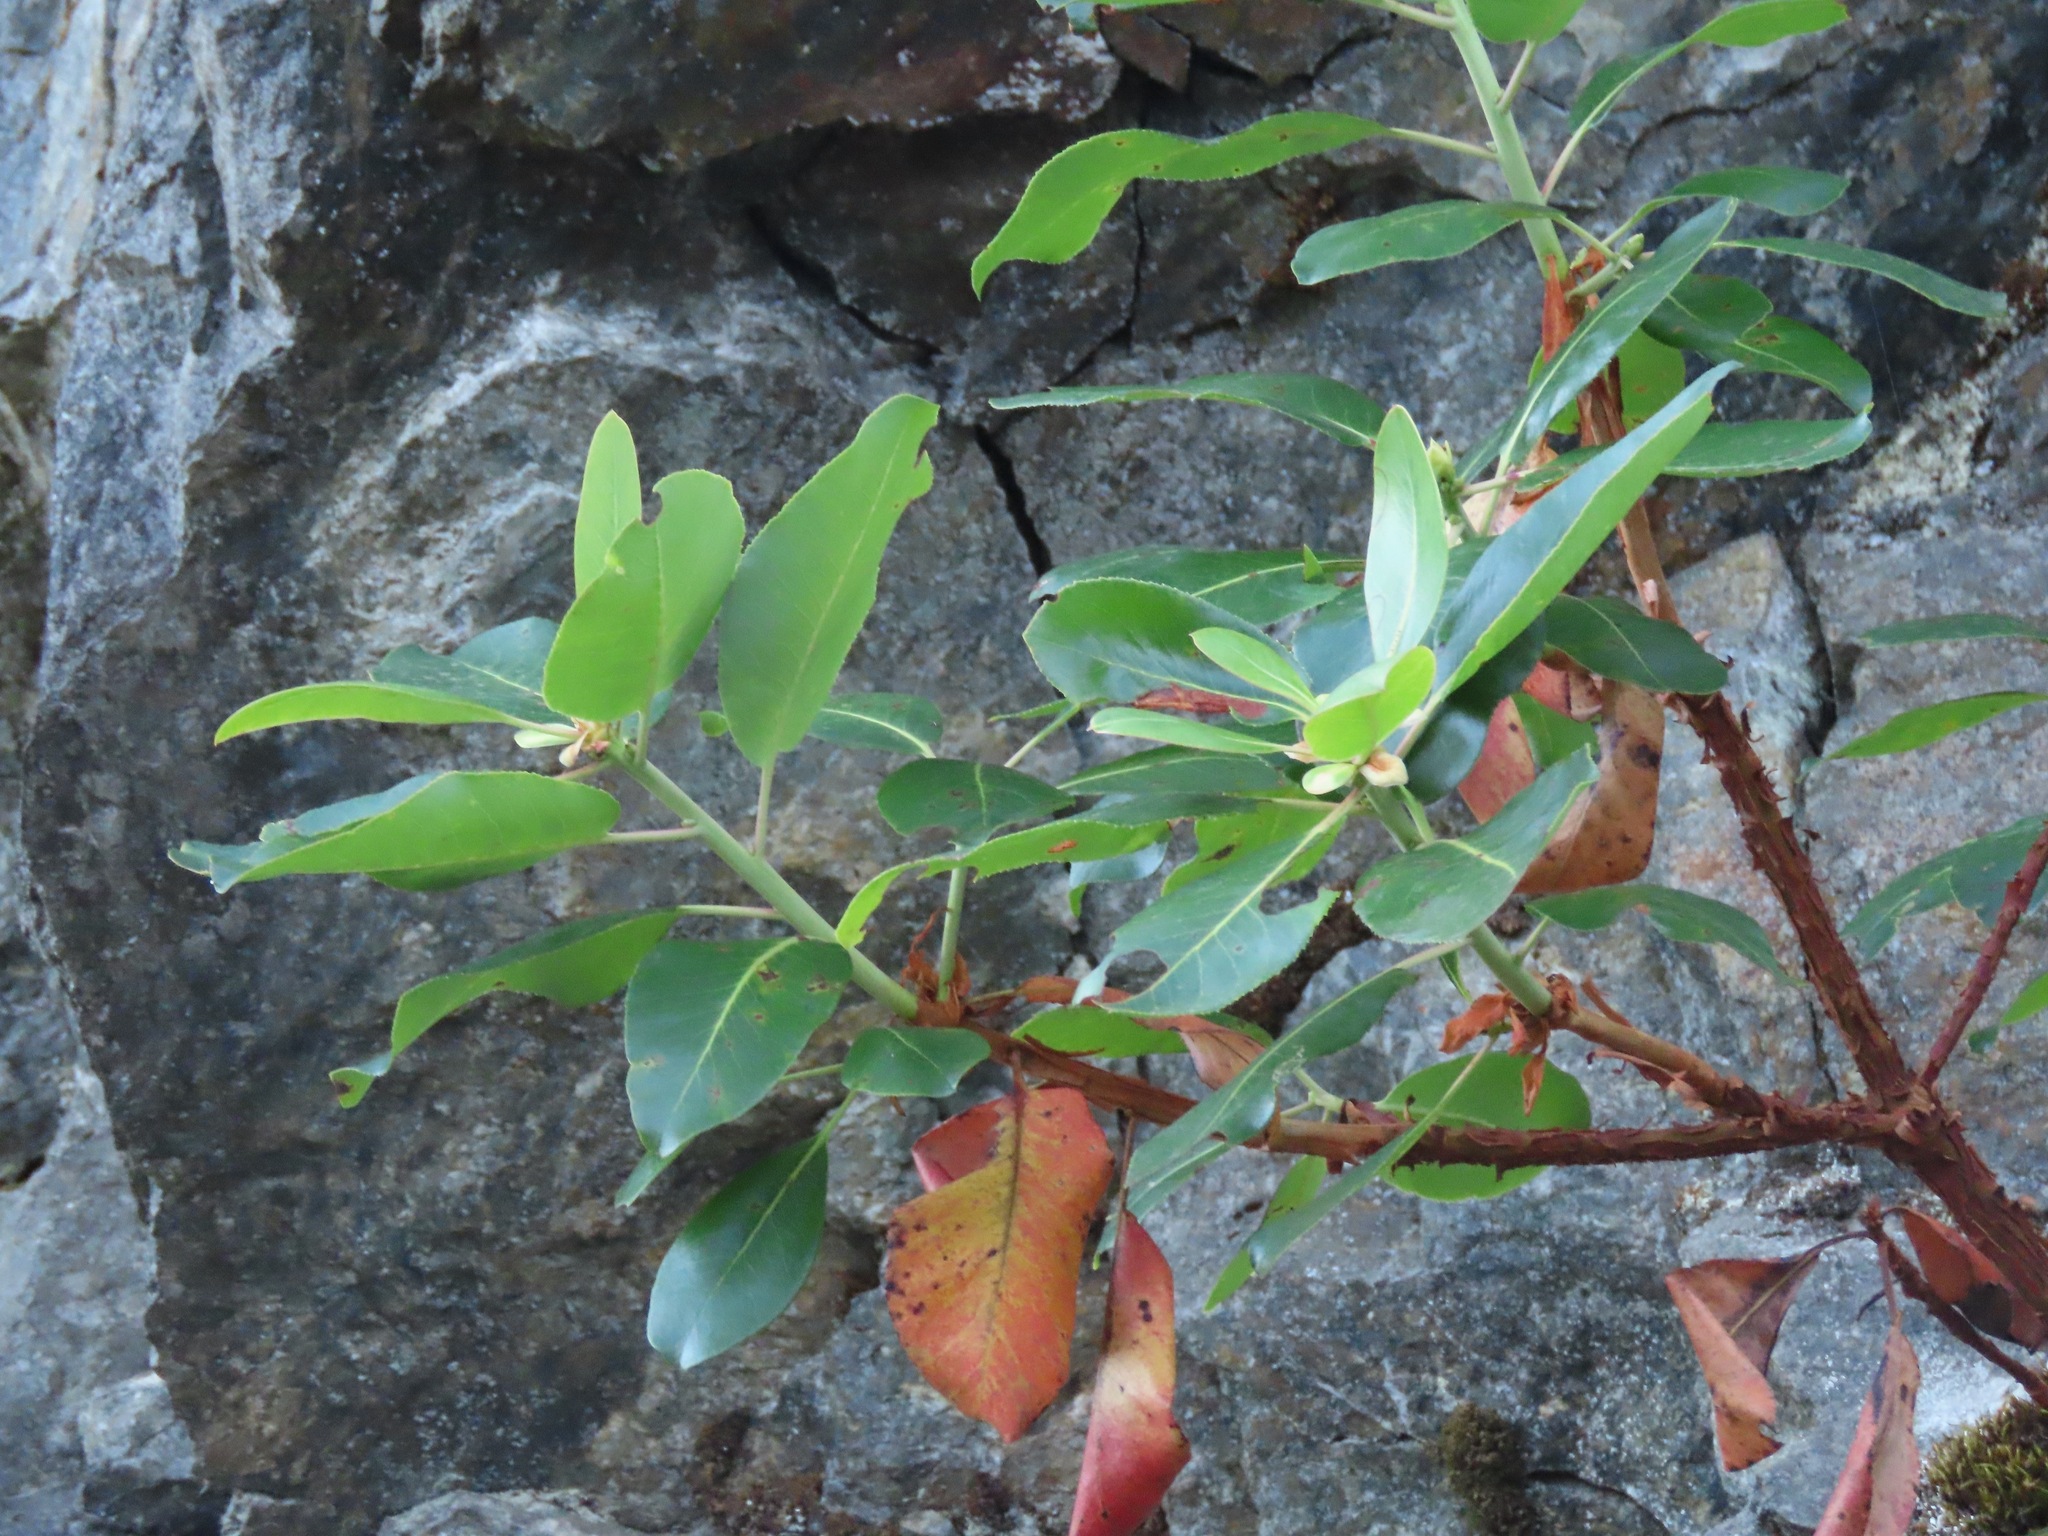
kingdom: Plantae
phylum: Tracheophyta
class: Magnoliopsida
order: Ericales
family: Ericaceae
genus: Arbutus
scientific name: Arbutus menziesii
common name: Pacific madrone
